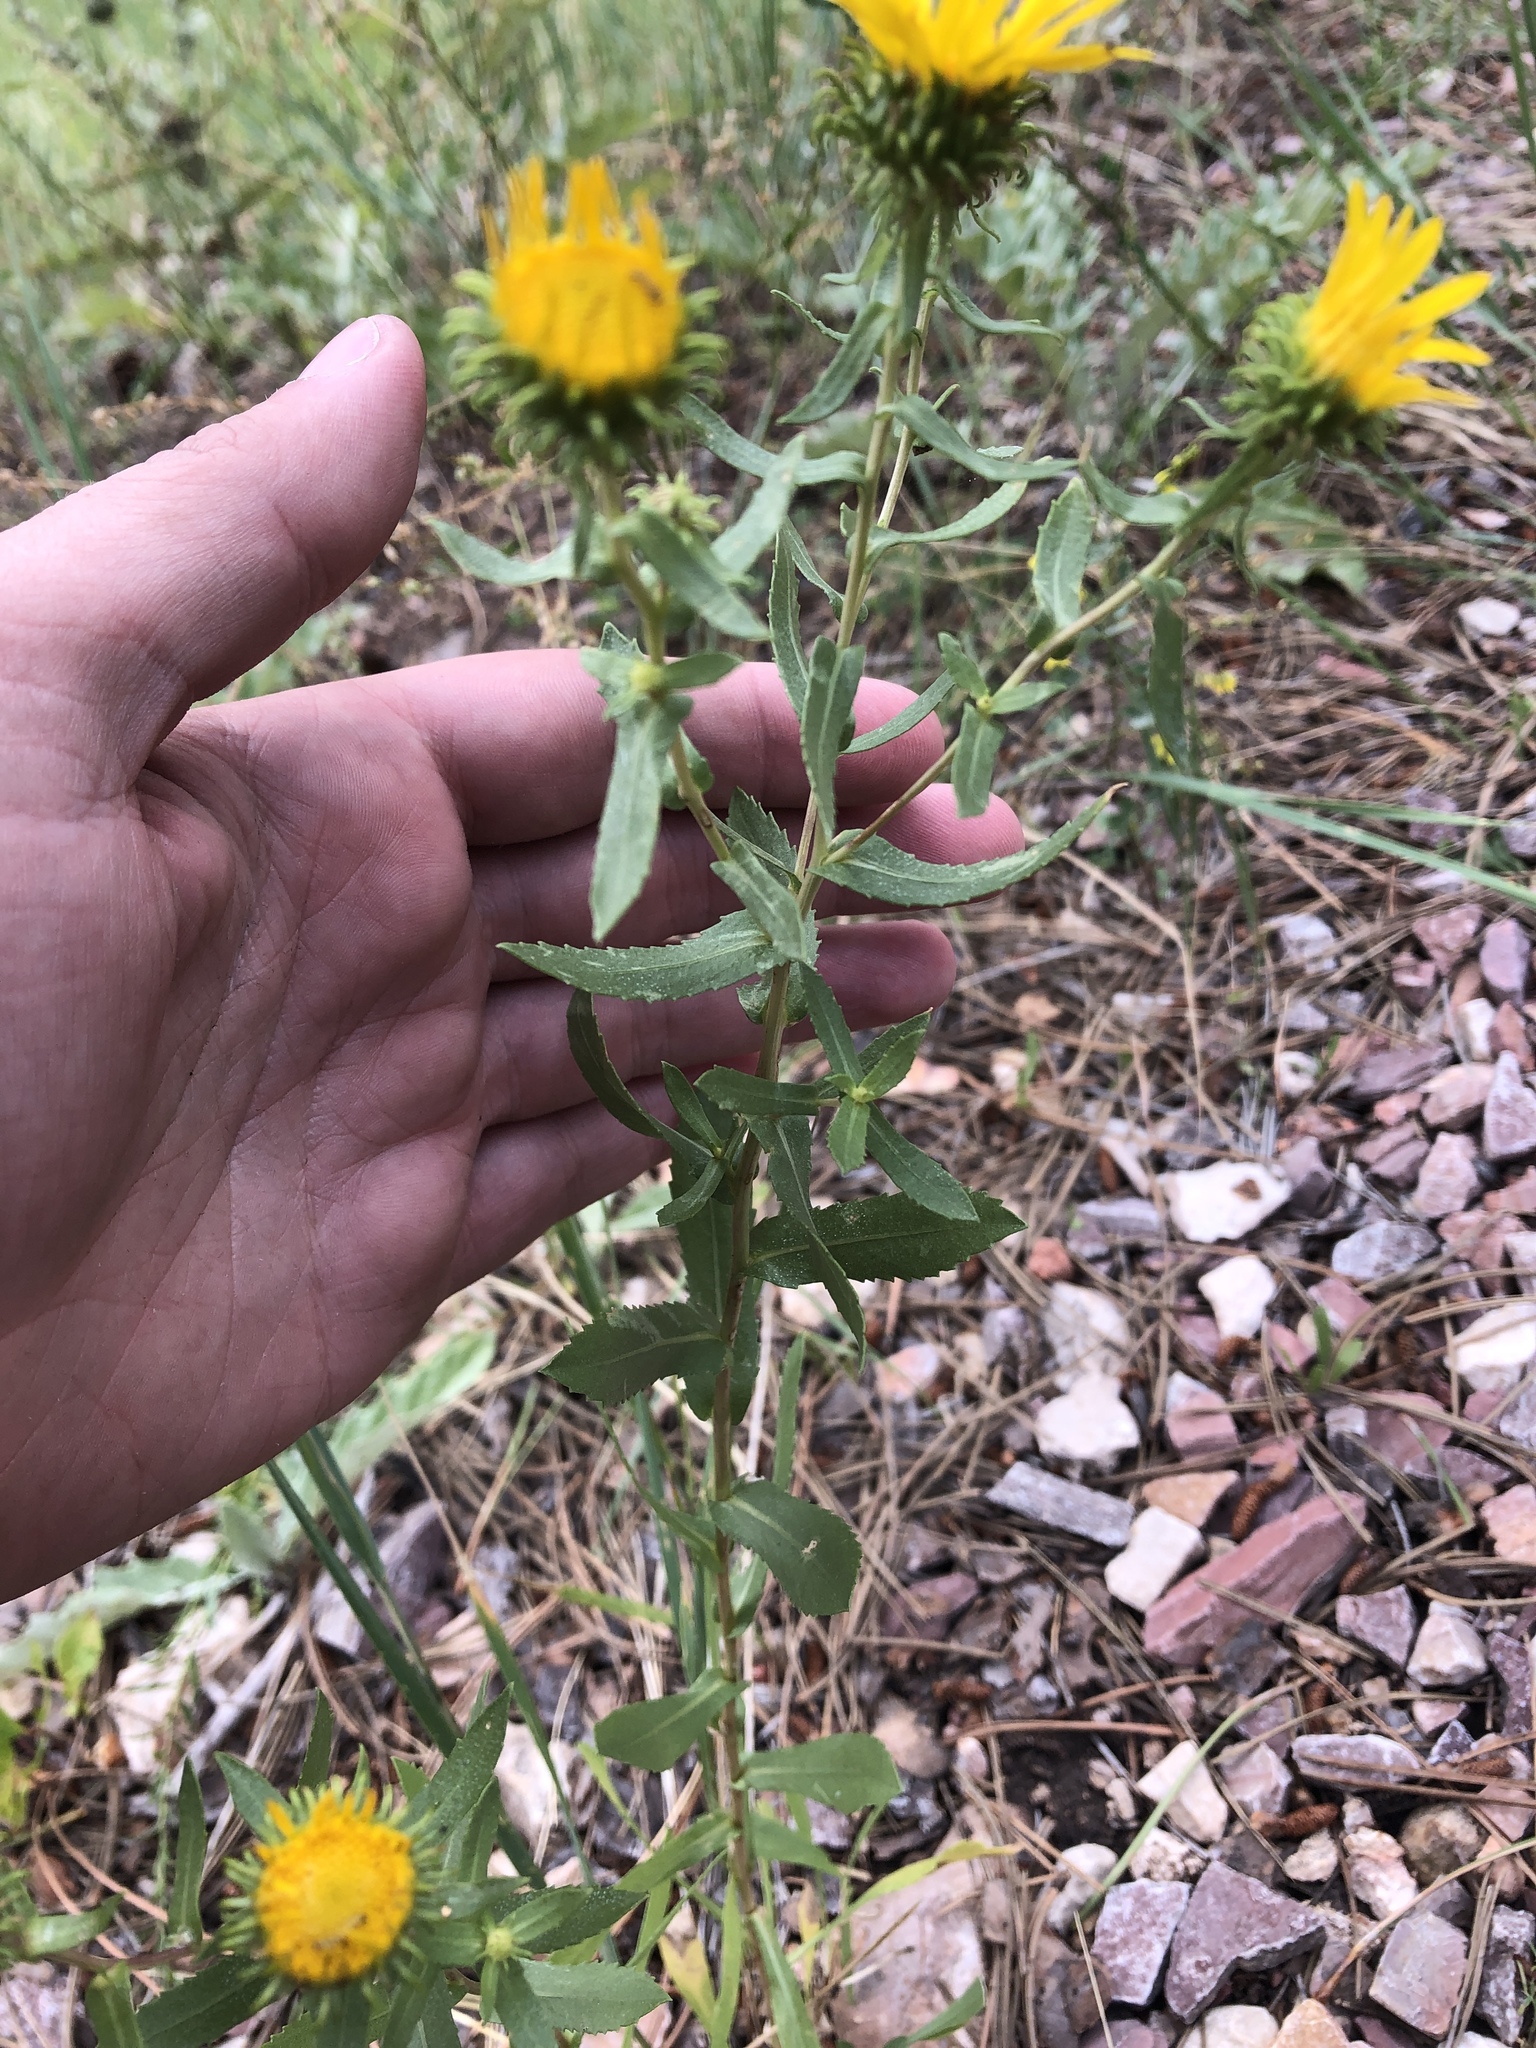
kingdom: Plantae
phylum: Tracheophyta
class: Magnoliopsida
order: Asterales
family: Asteraceae
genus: Grindelia
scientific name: Grindelia squarrosa
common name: Curly-cup gumweed
